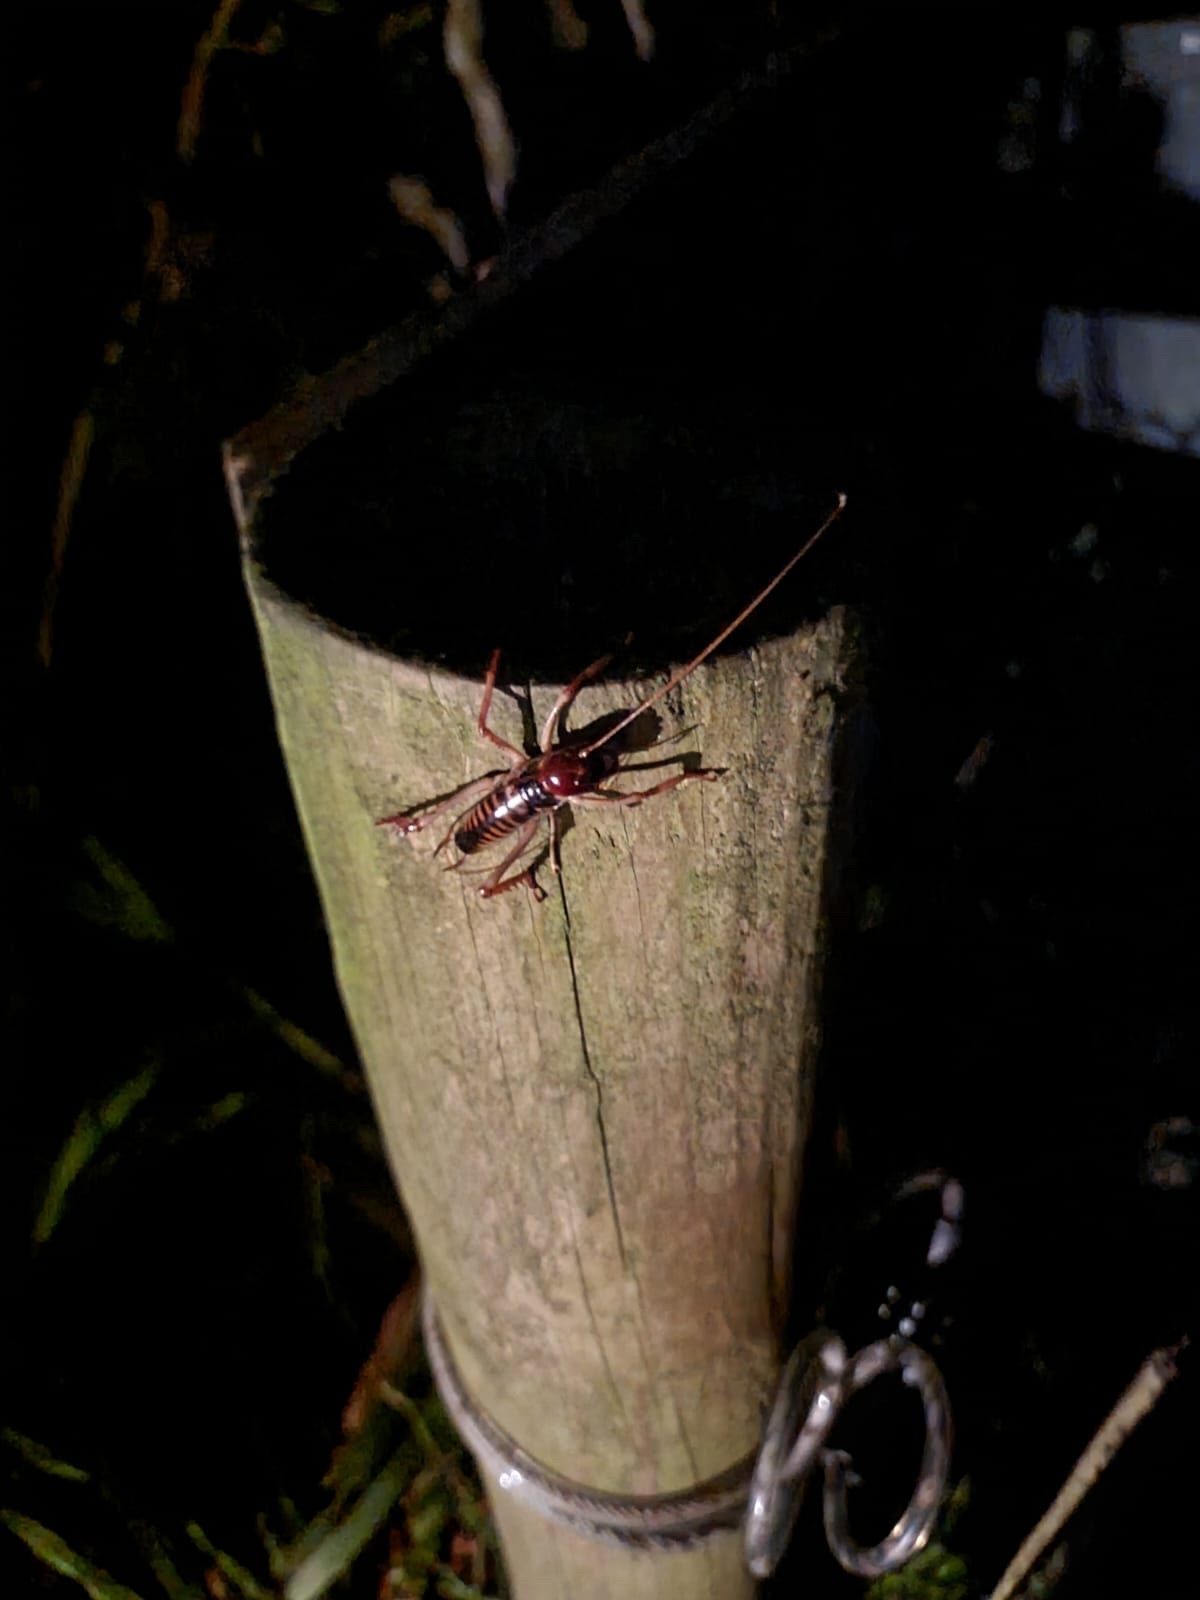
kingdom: Animalia
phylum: Arthropoda
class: Insecta
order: Orthoptera
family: Anostostomatidae
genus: Hemideina
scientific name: Hemideina crassidens
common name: Wellington tree weta
